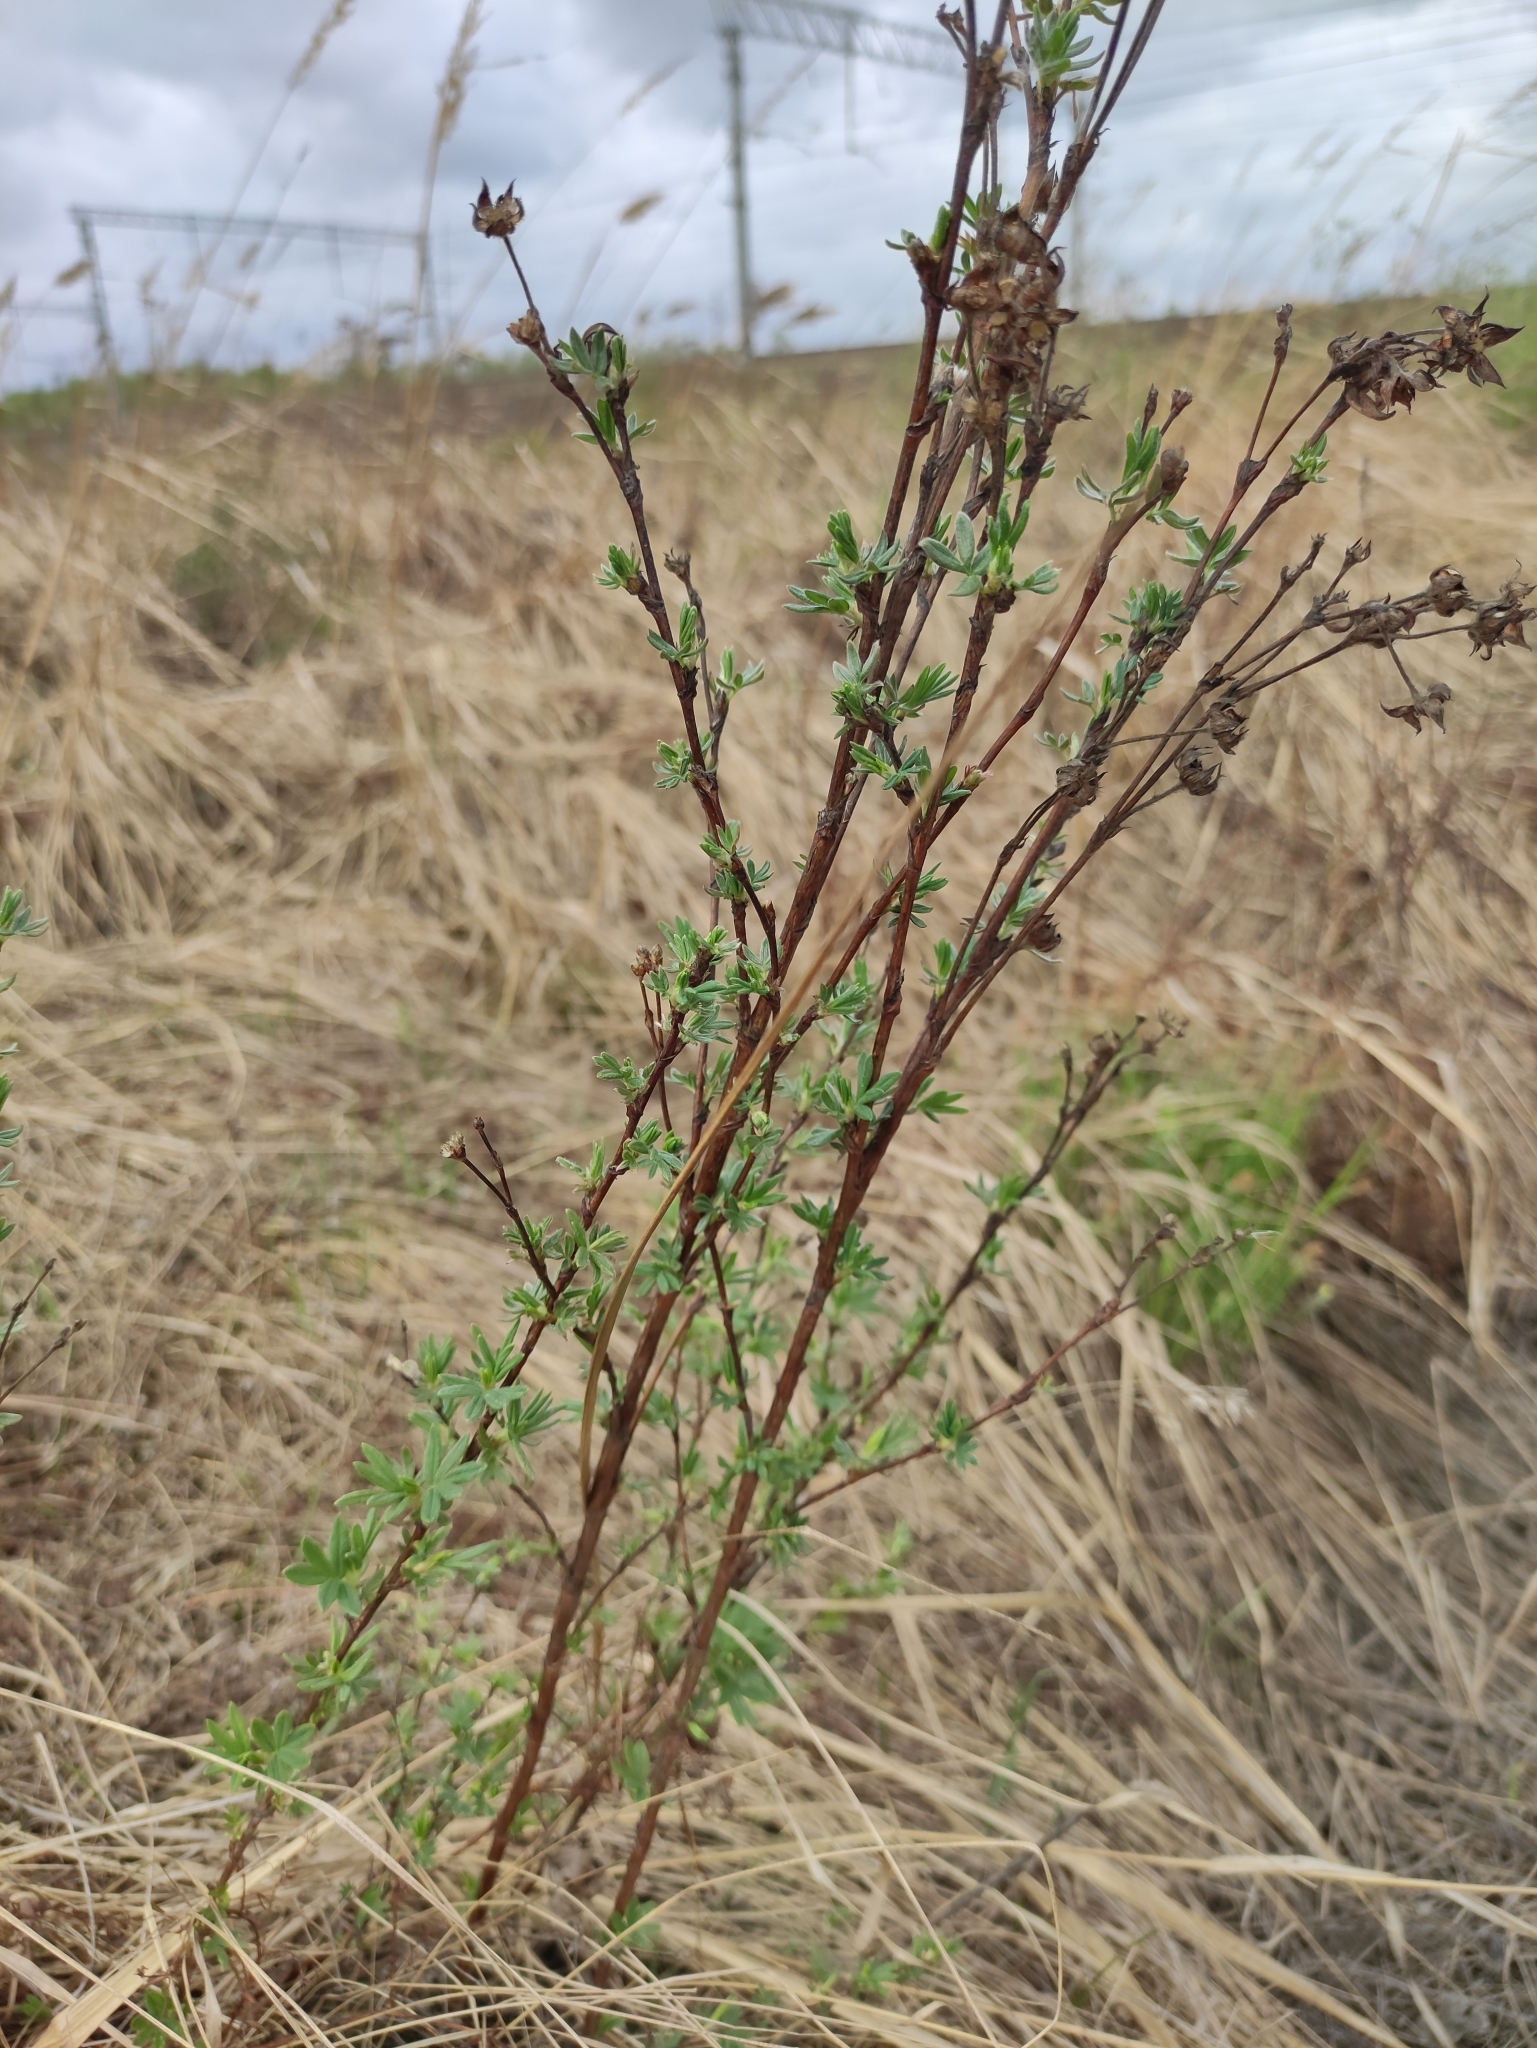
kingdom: Plantae
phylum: Tracheophyta
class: Magnoliopsida
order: Rosales
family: Rosaceae
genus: Dasiphora
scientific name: Dasiphora fruticosa
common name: Shrubby cinquefoil
